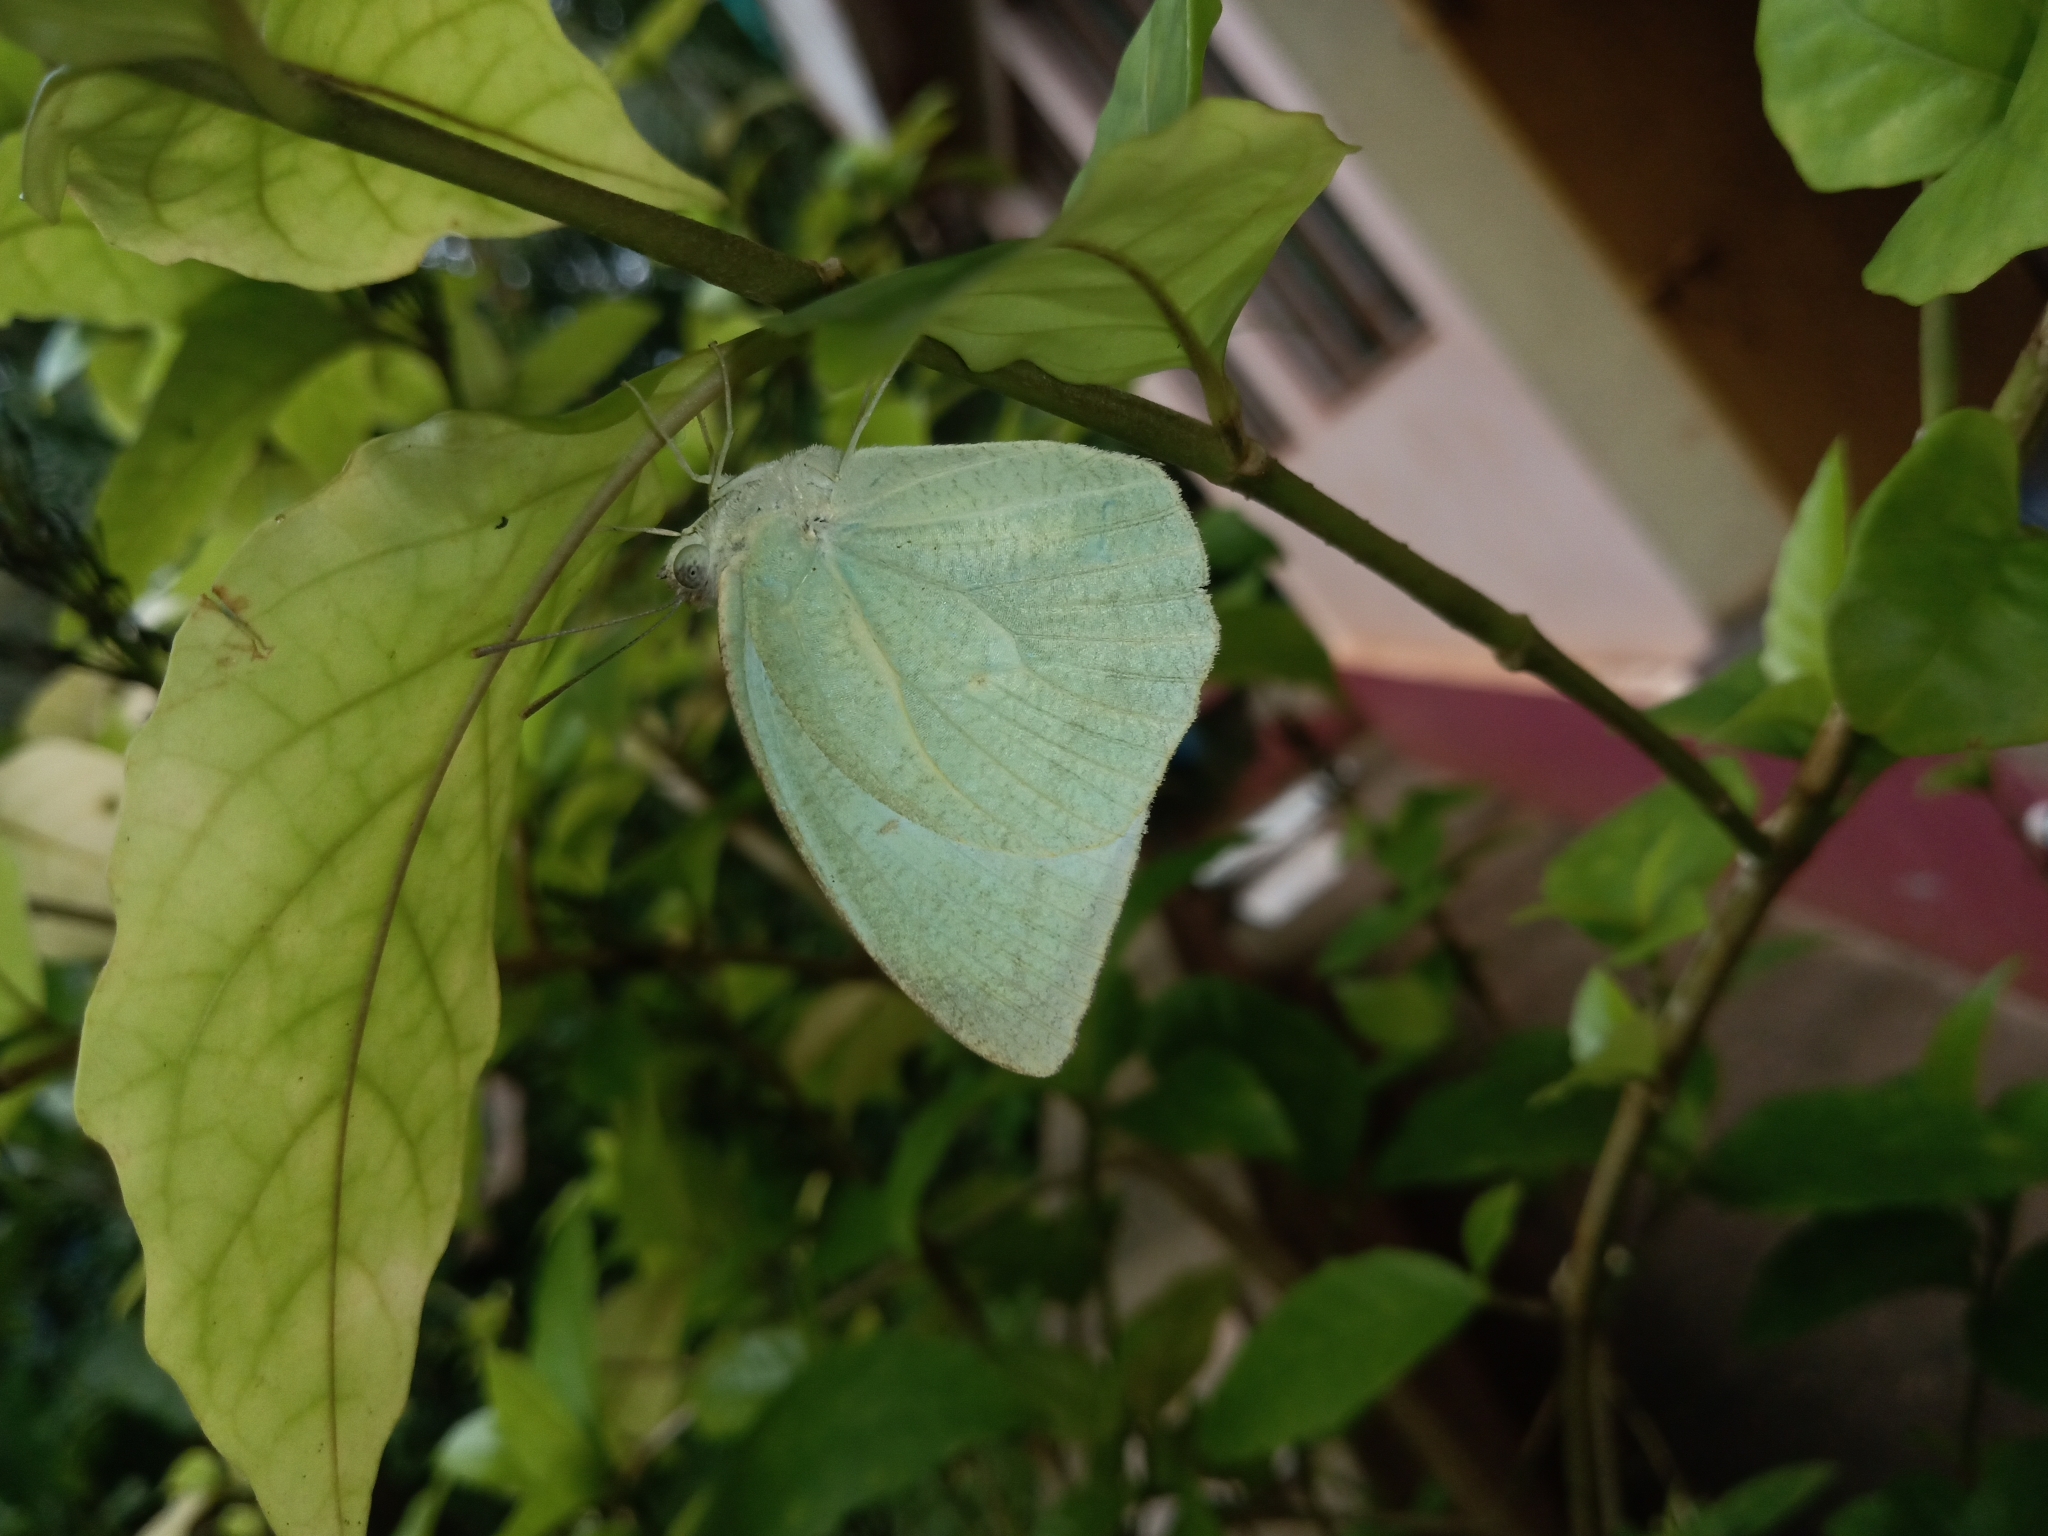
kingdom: Animalia
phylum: Arthropoda
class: Insecta
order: Lepidoptera
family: Pieridae
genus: Catopsilia
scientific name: Catopsilia pyranthe
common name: Mottled emigrant
